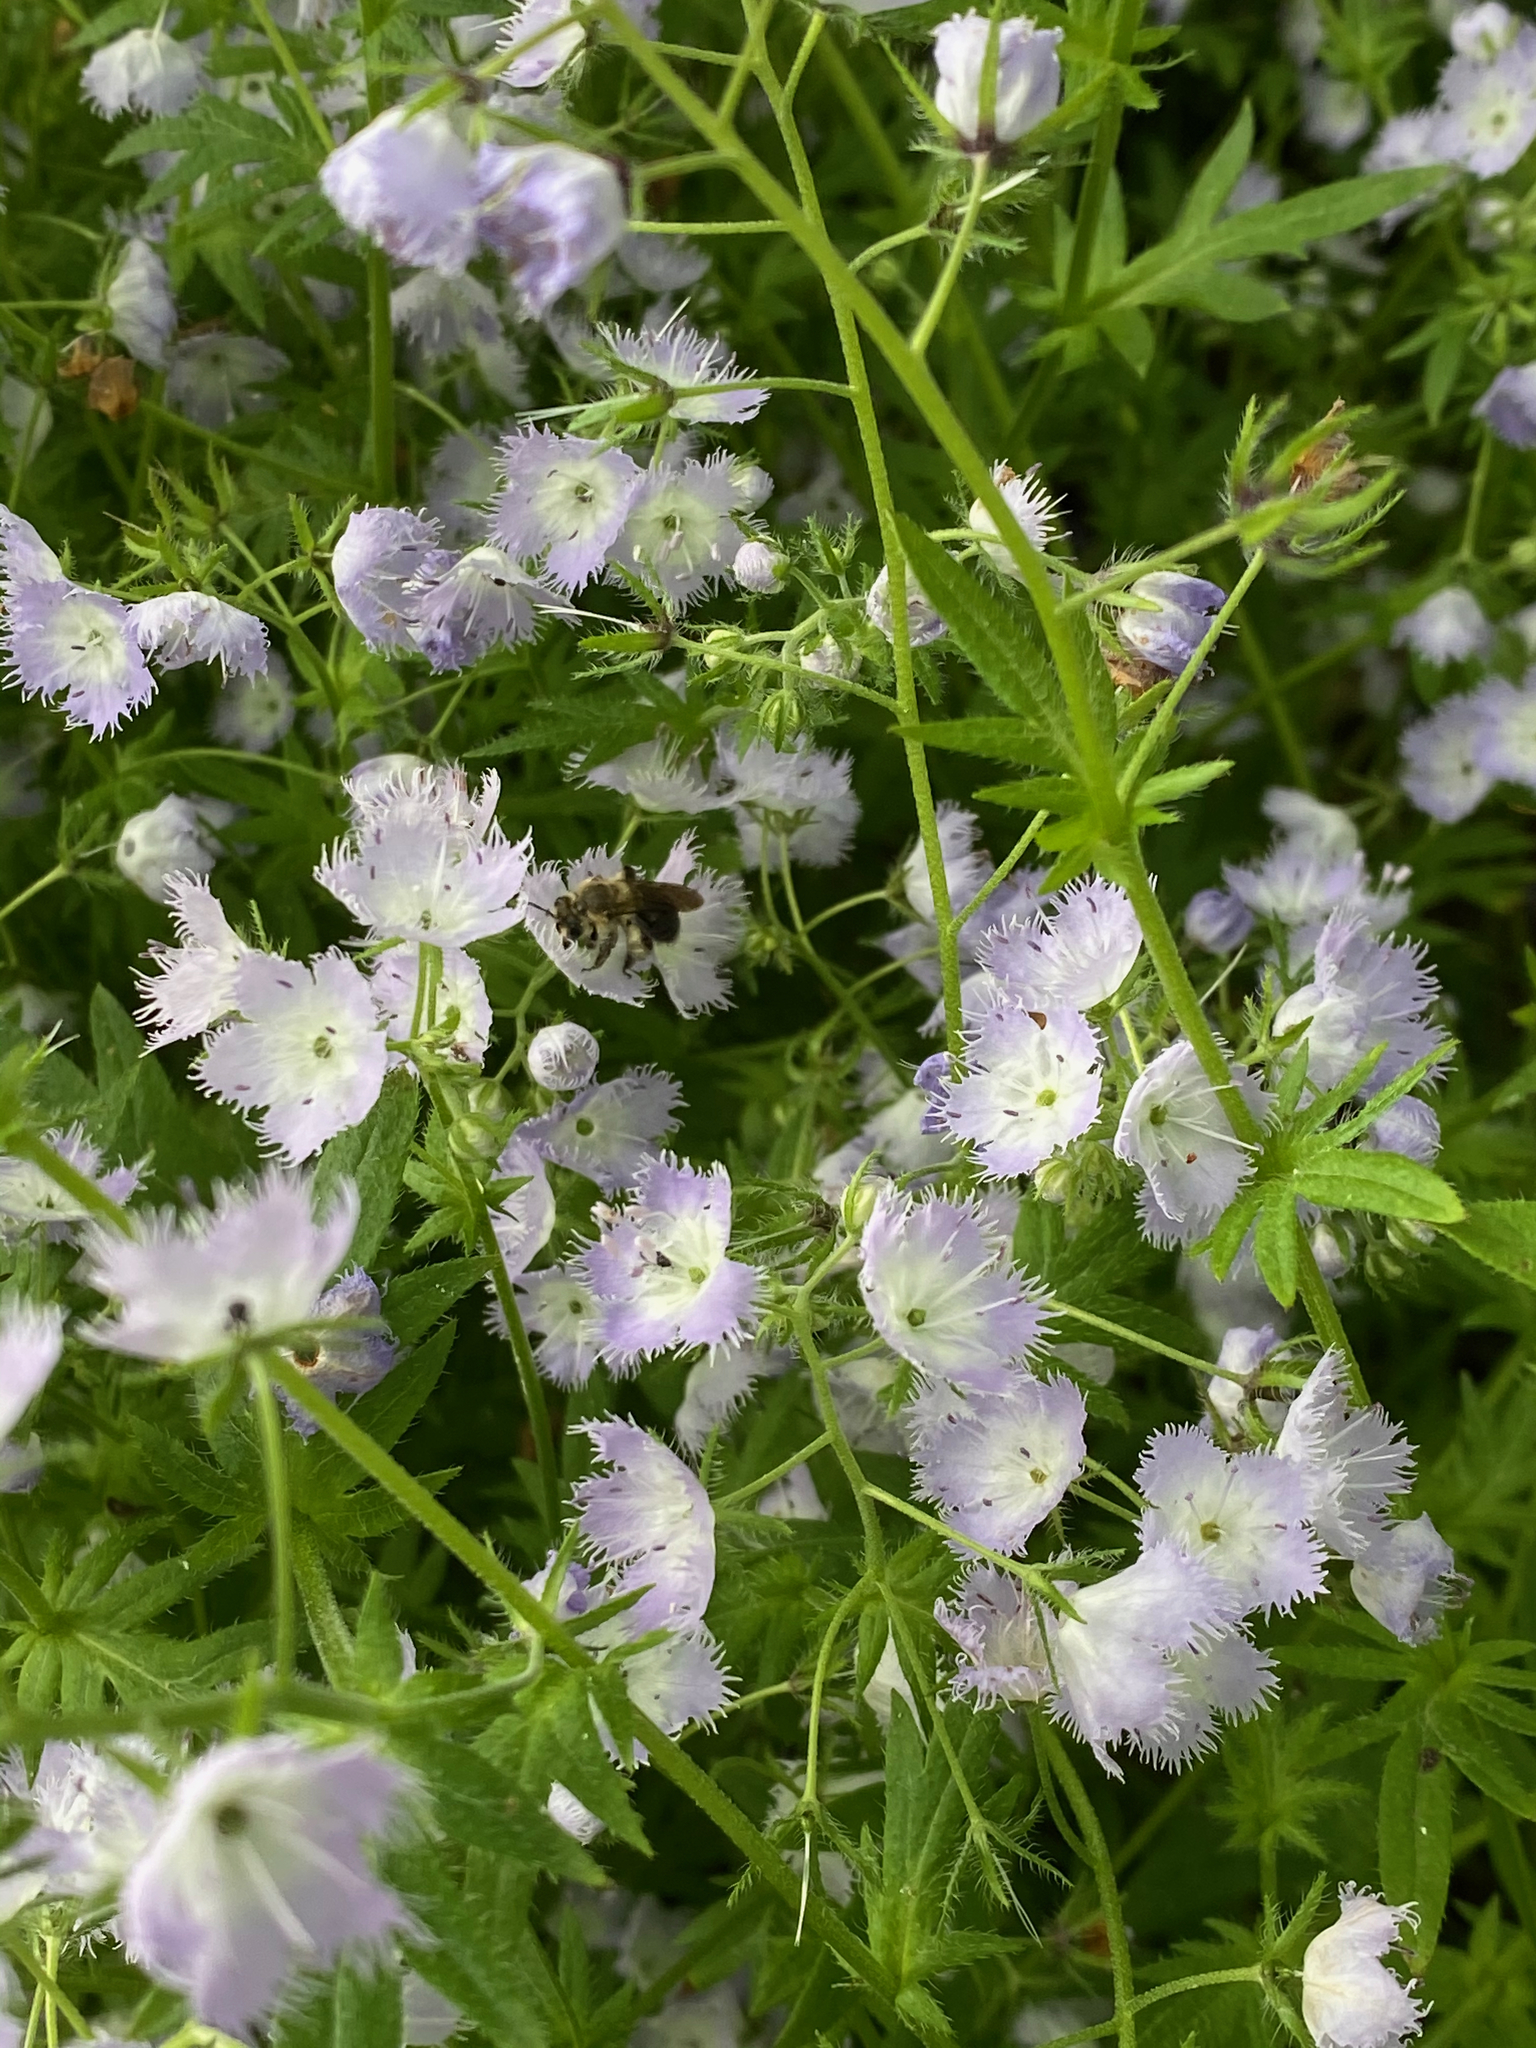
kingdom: Plantae
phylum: Tracheophyta
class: Magnoliopsida
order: Boraginales
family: Hydrophyllaceae
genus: Phacelia
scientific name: Phacelia purshii
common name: Miami-mist
